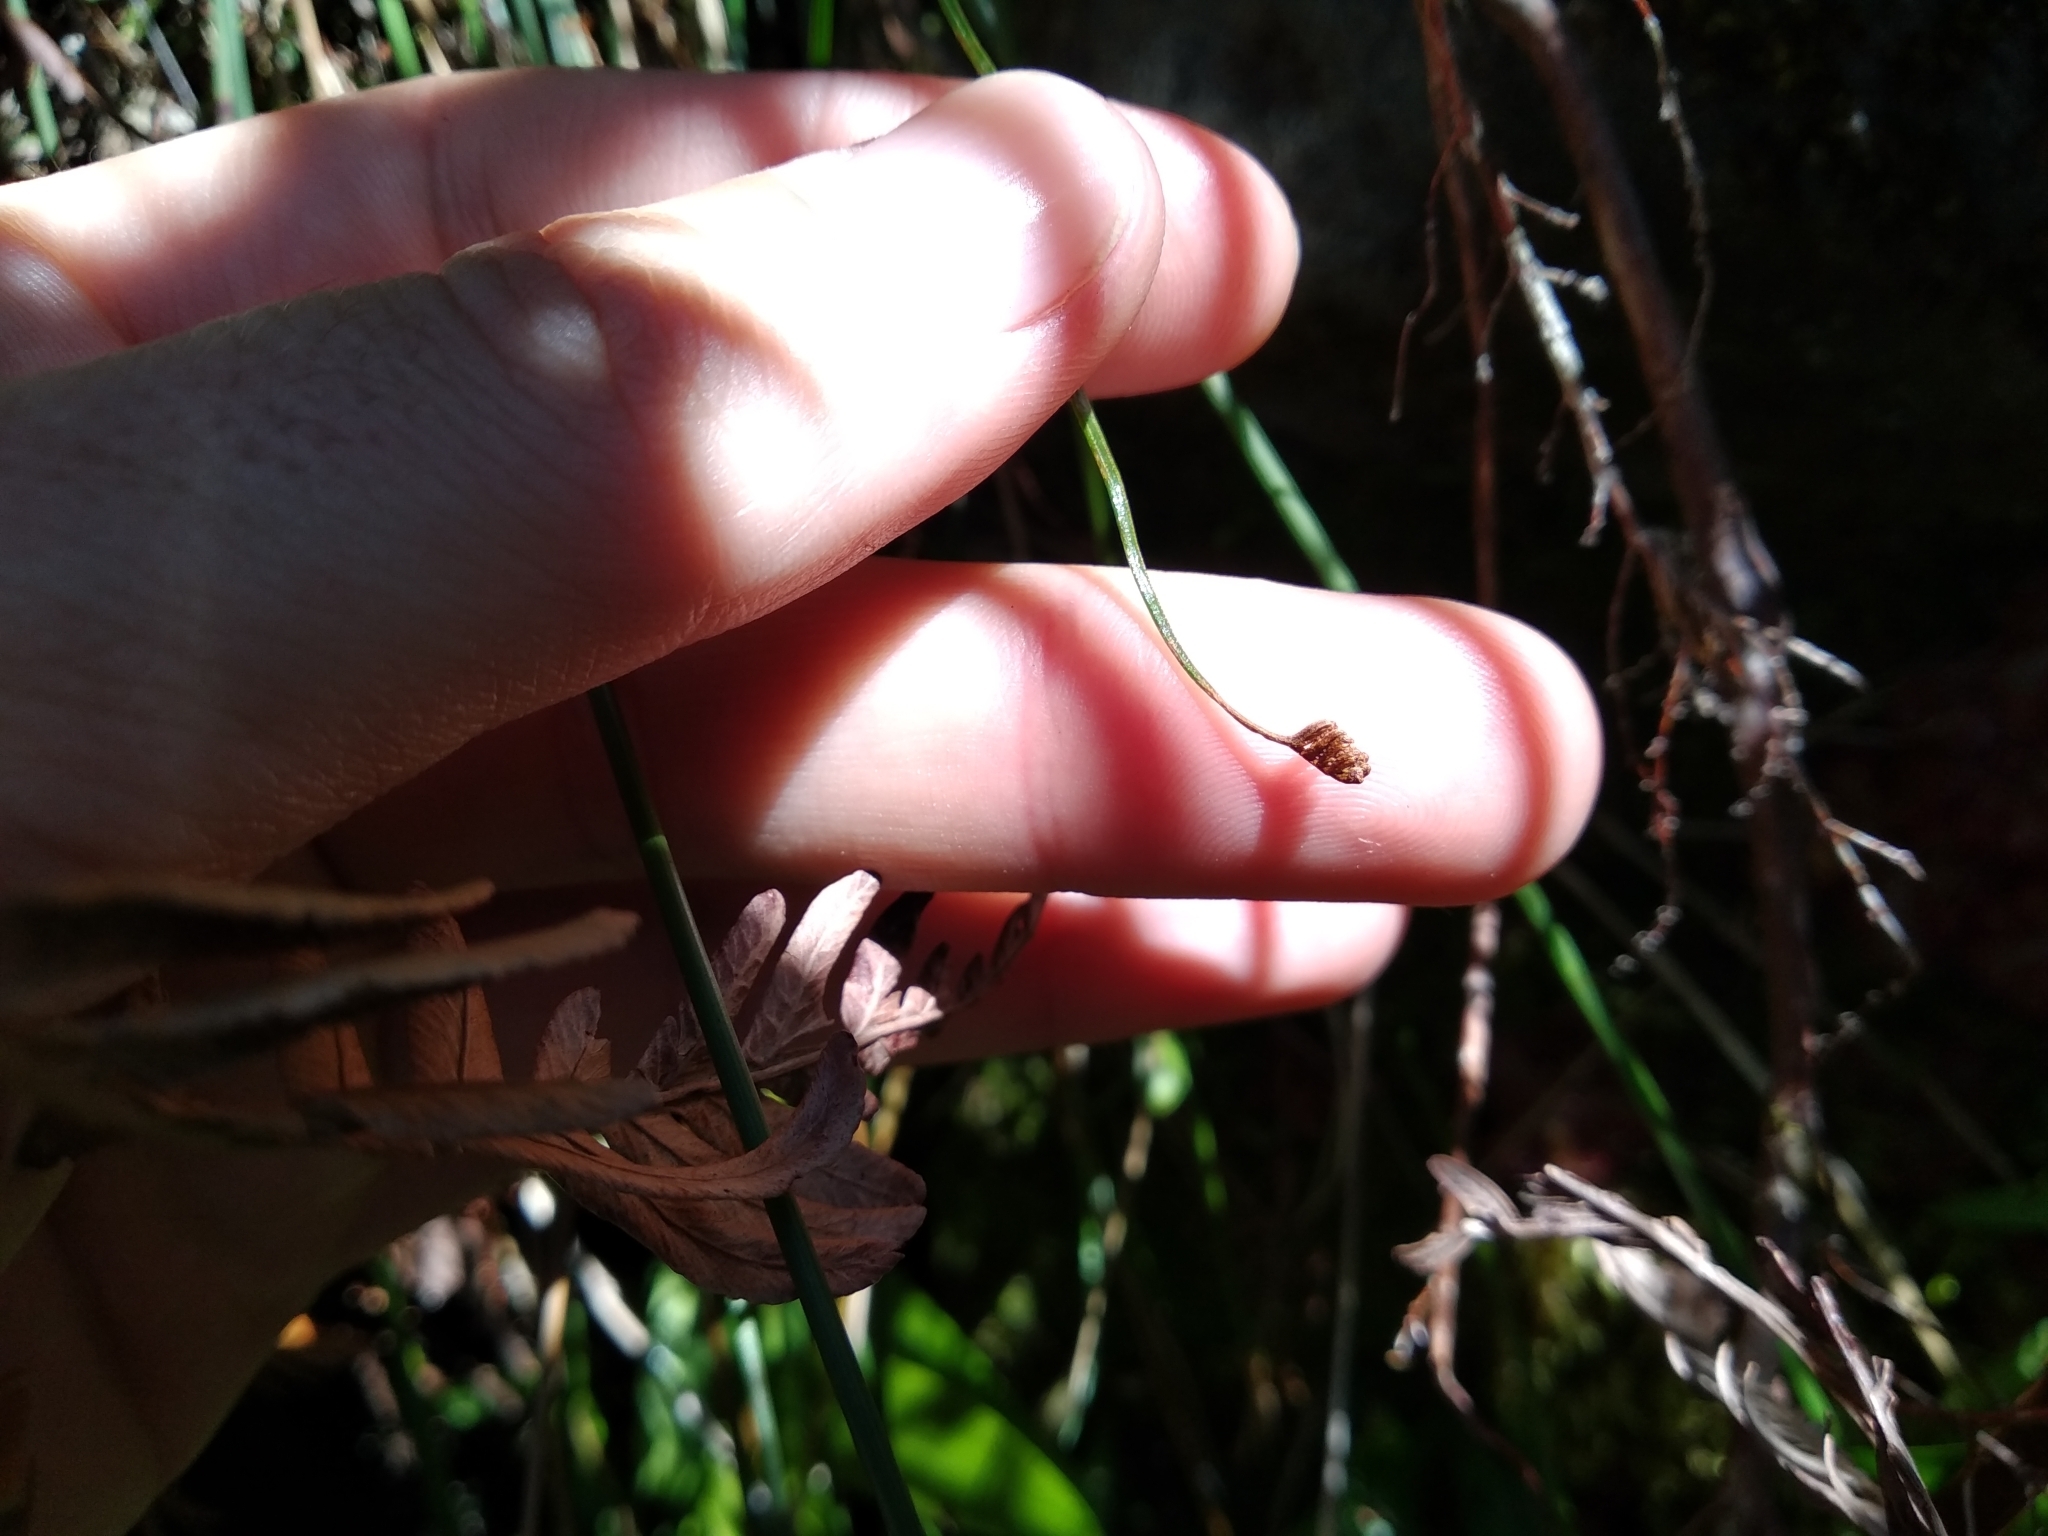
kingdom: Plantae
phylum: Tracheophyta
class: Polypodiopsida
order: Schizaeales
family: Schizaeaceae
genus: Microschizaea
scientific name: Microschizaea tenella
